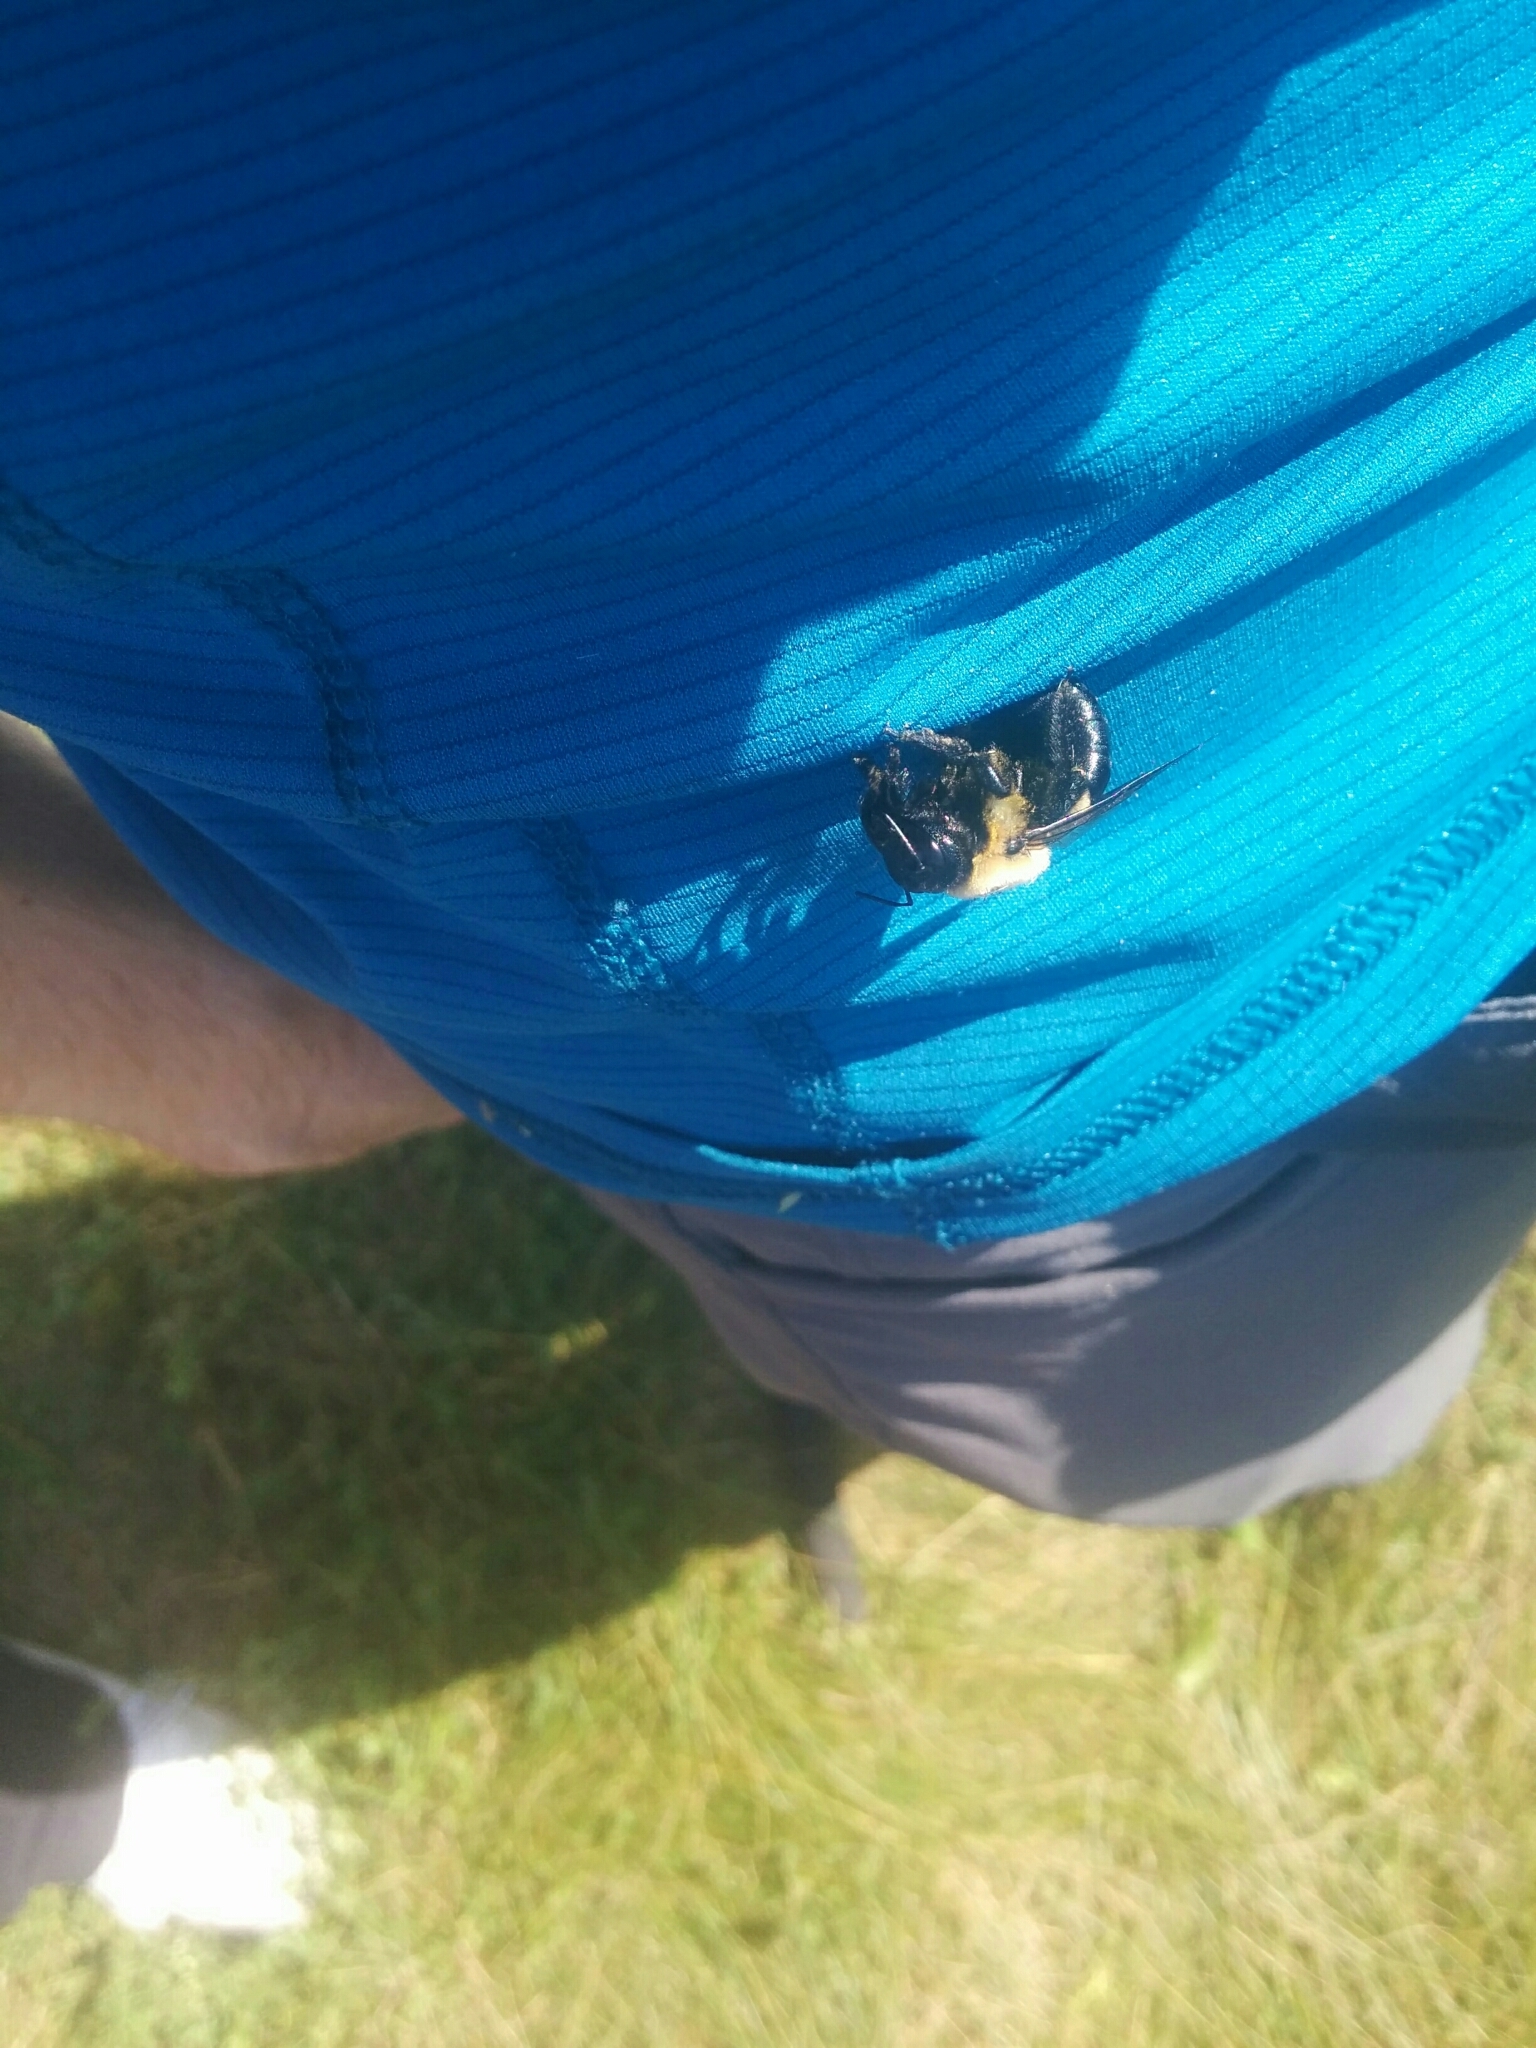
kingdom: Animalia
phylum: Arthropoda
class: Insecta
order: Hymenoptera
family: Apidae
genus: Xylocopa
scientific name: Xylocopa virginica
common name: Carpenter bee
